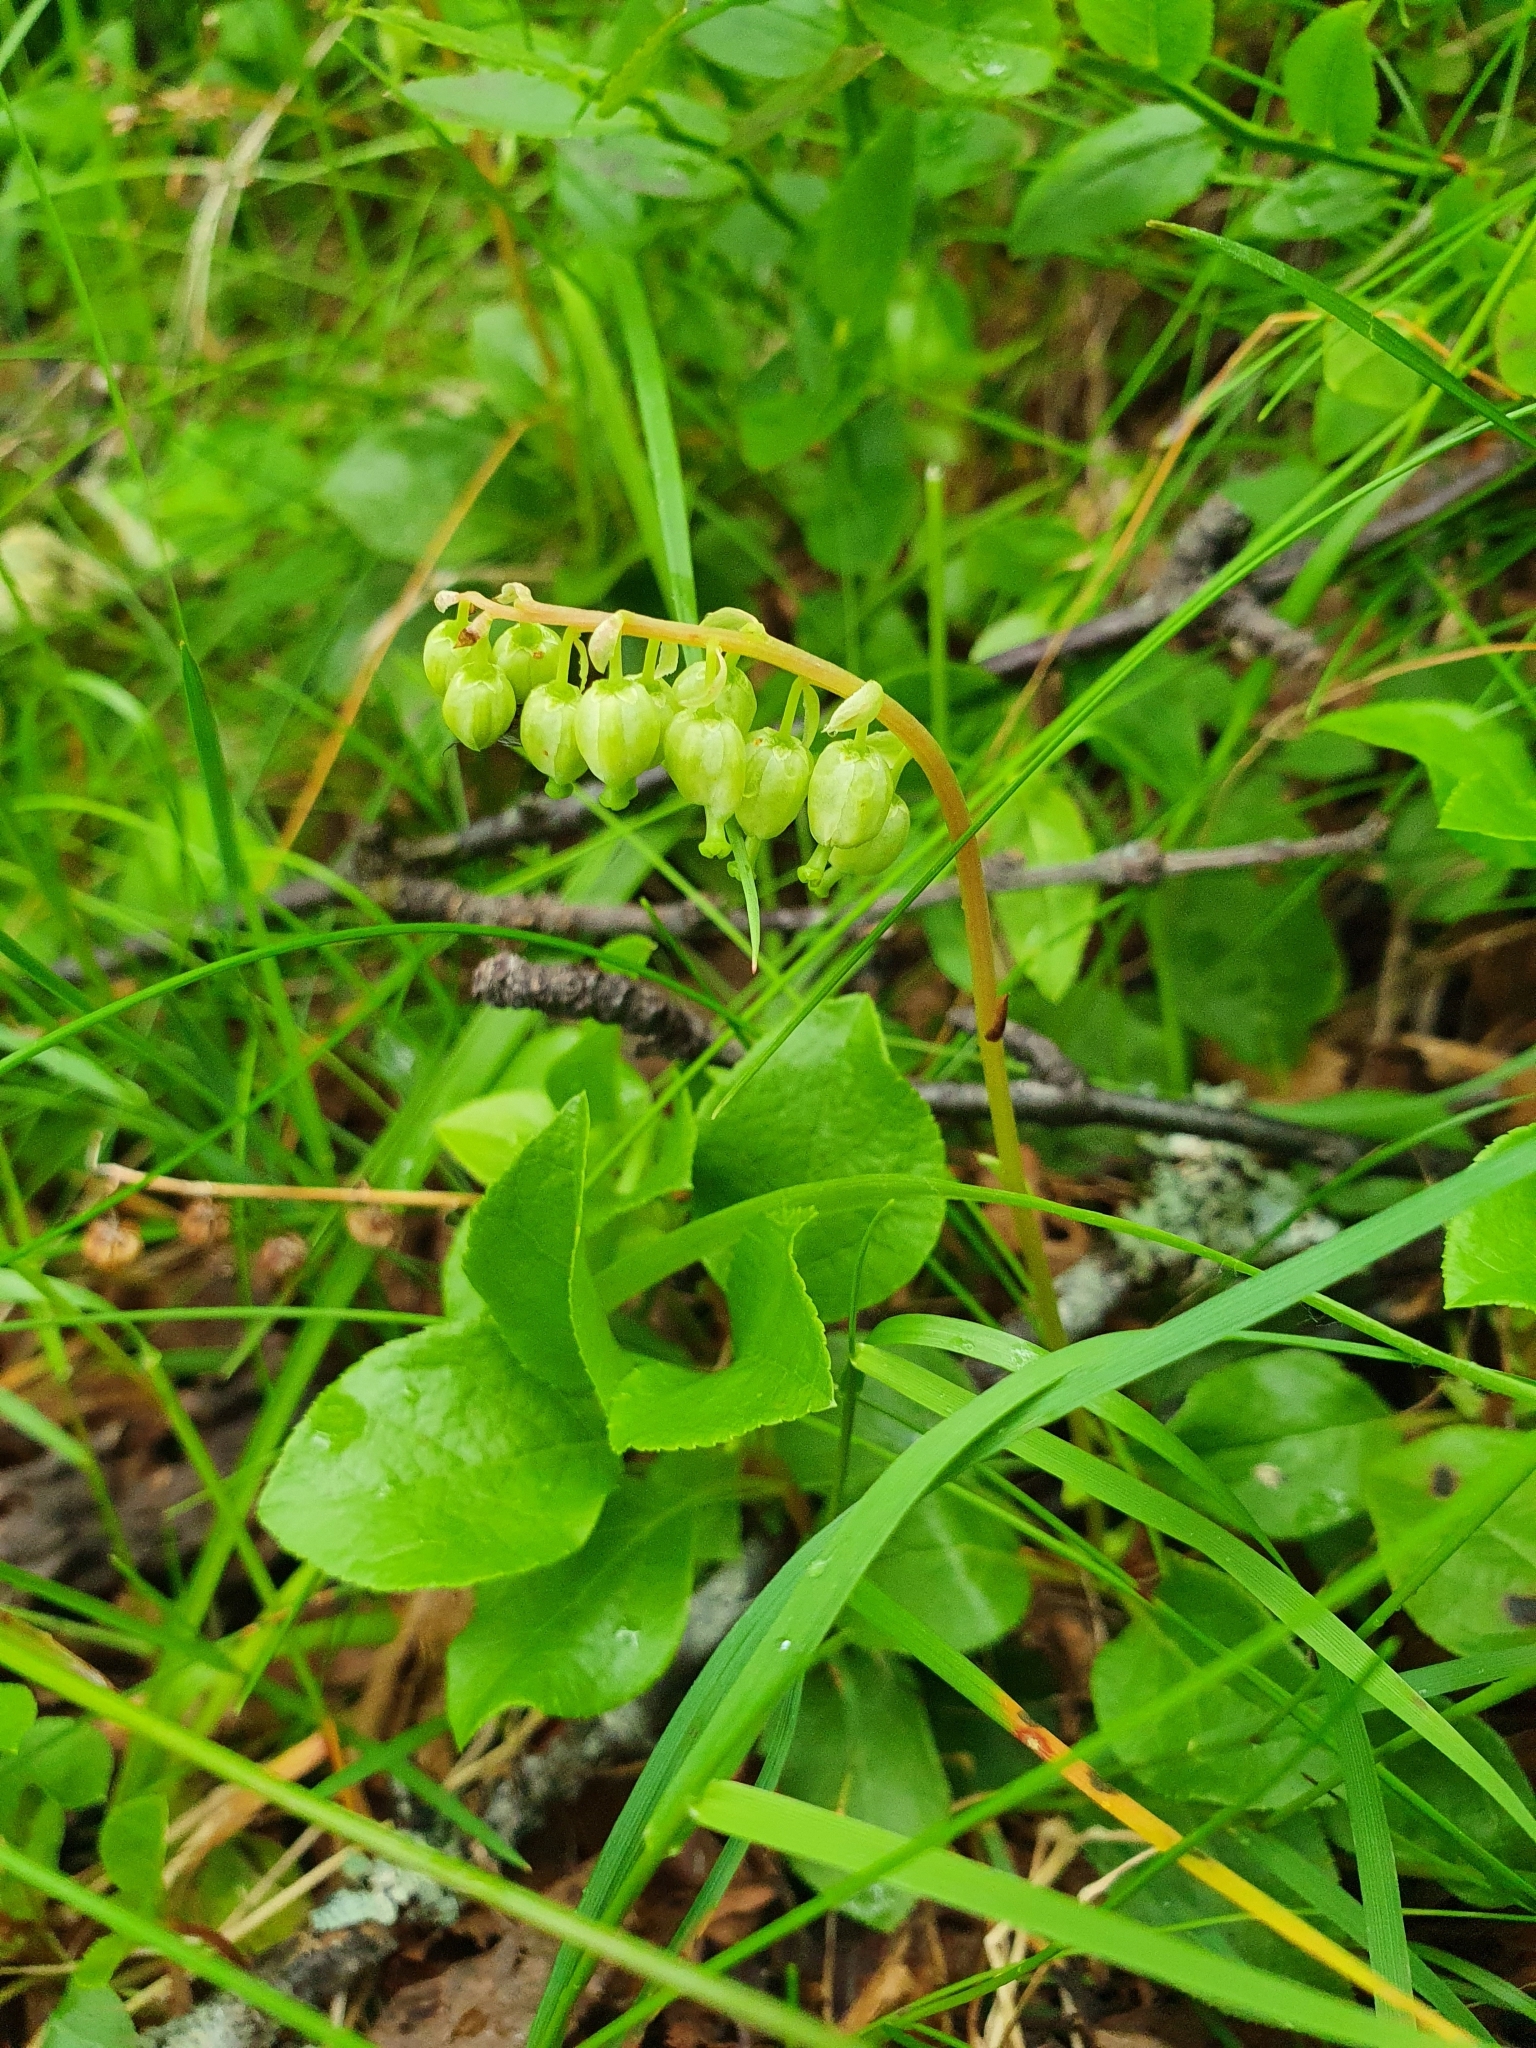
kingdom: Plantae
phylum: Tracheophyta
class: Magnoliopsida
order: Ericales
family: Ericaceae
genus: Orthilia
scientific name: Orthilia secunda
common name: One-sided orthilia
